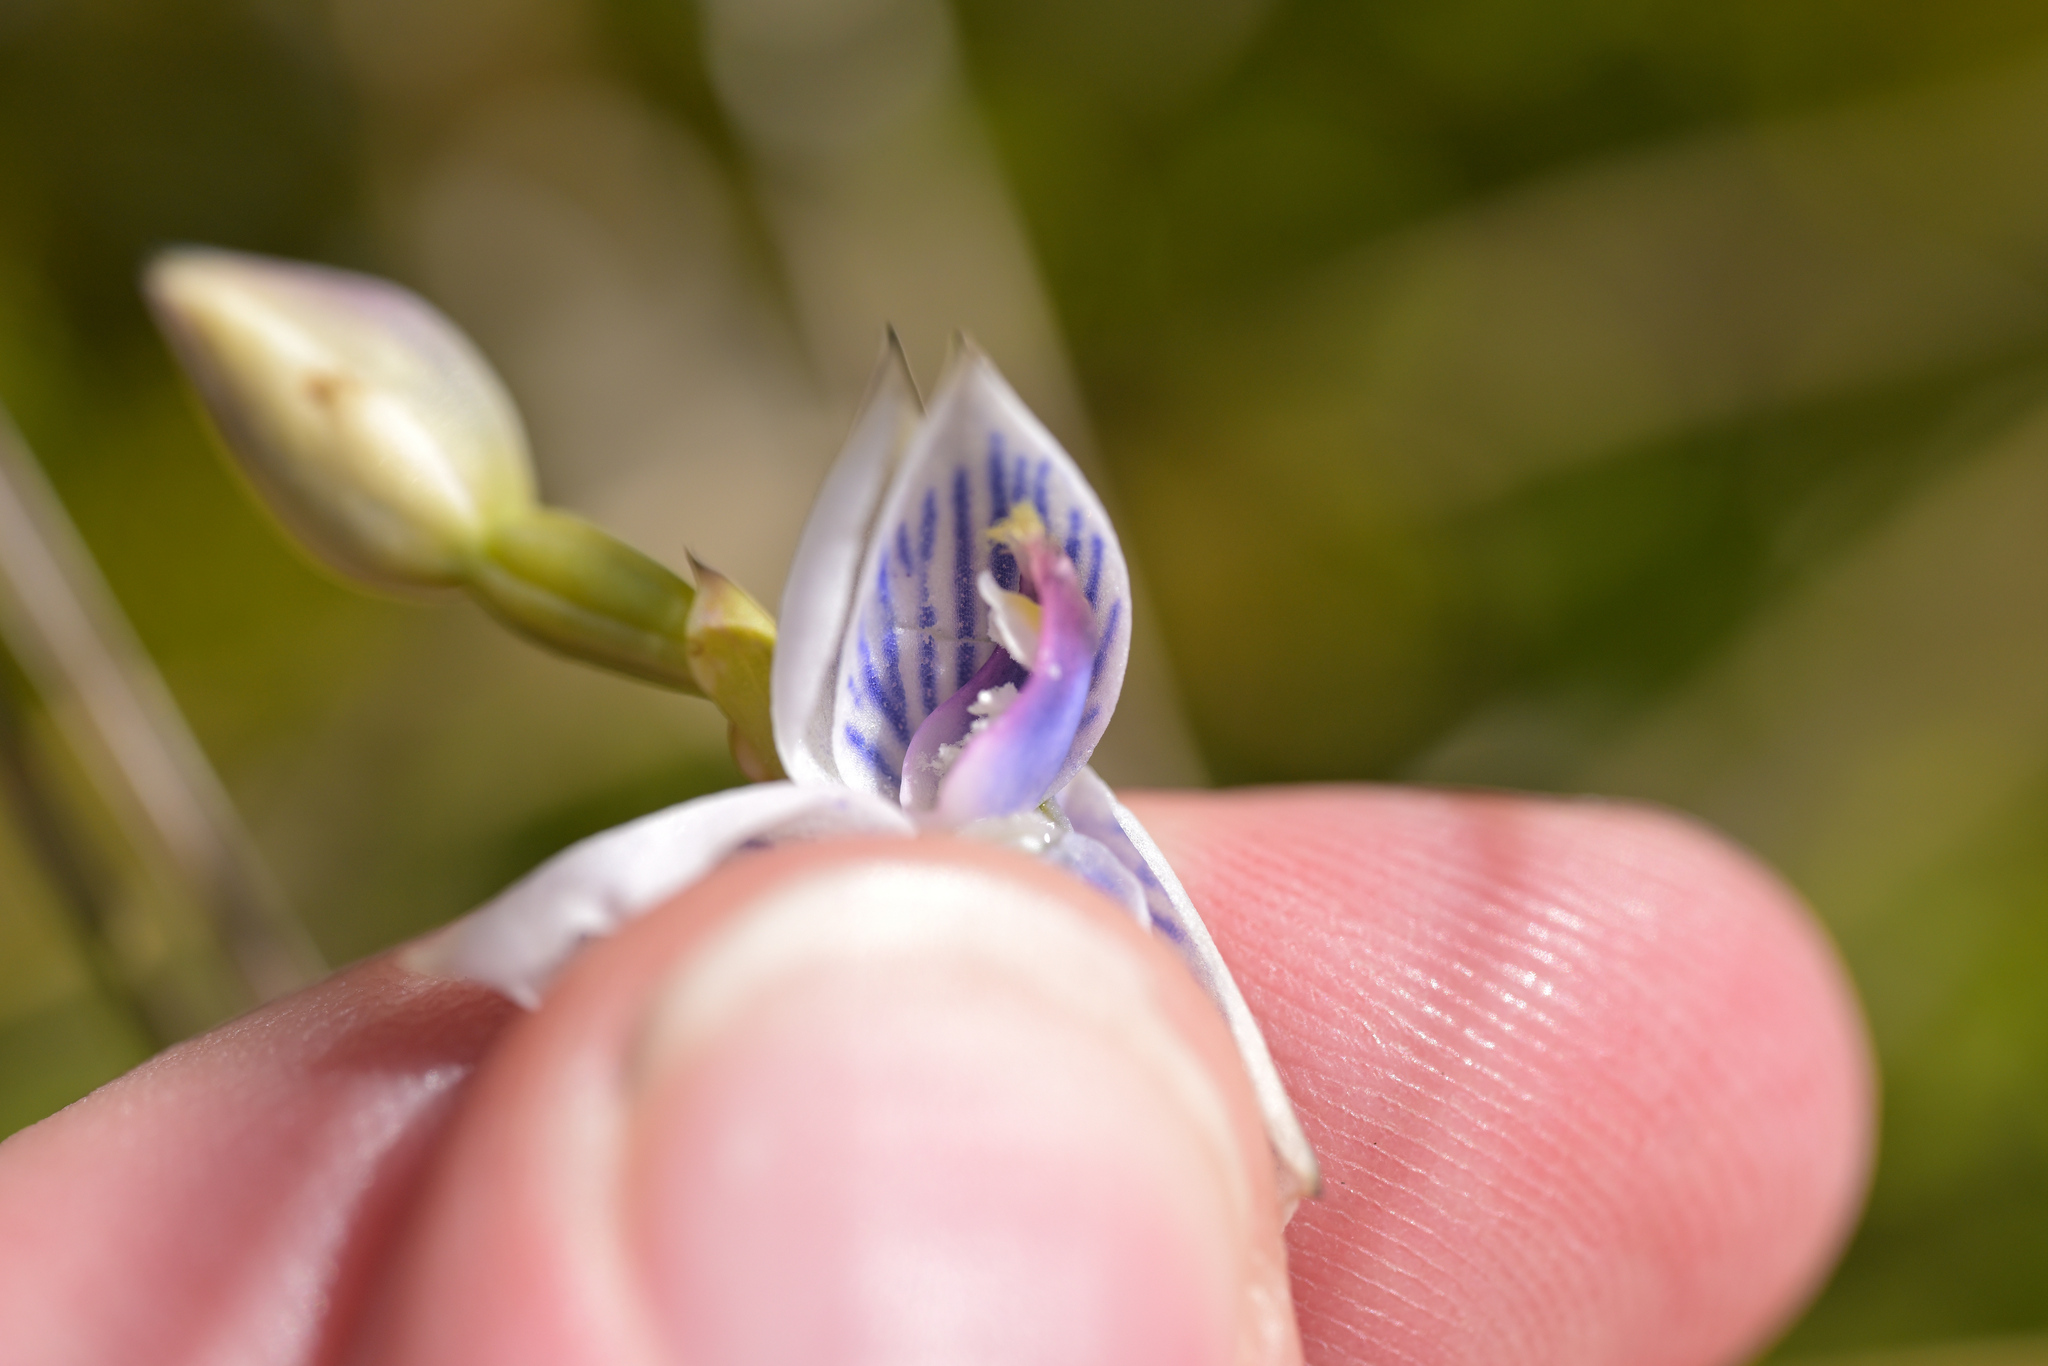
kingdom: Plantae
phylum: Tracheophyta
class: Liliopsida
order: Asparagales
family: Orchidaceae
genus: Thelymitra
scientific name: Thelymitra pulchella
